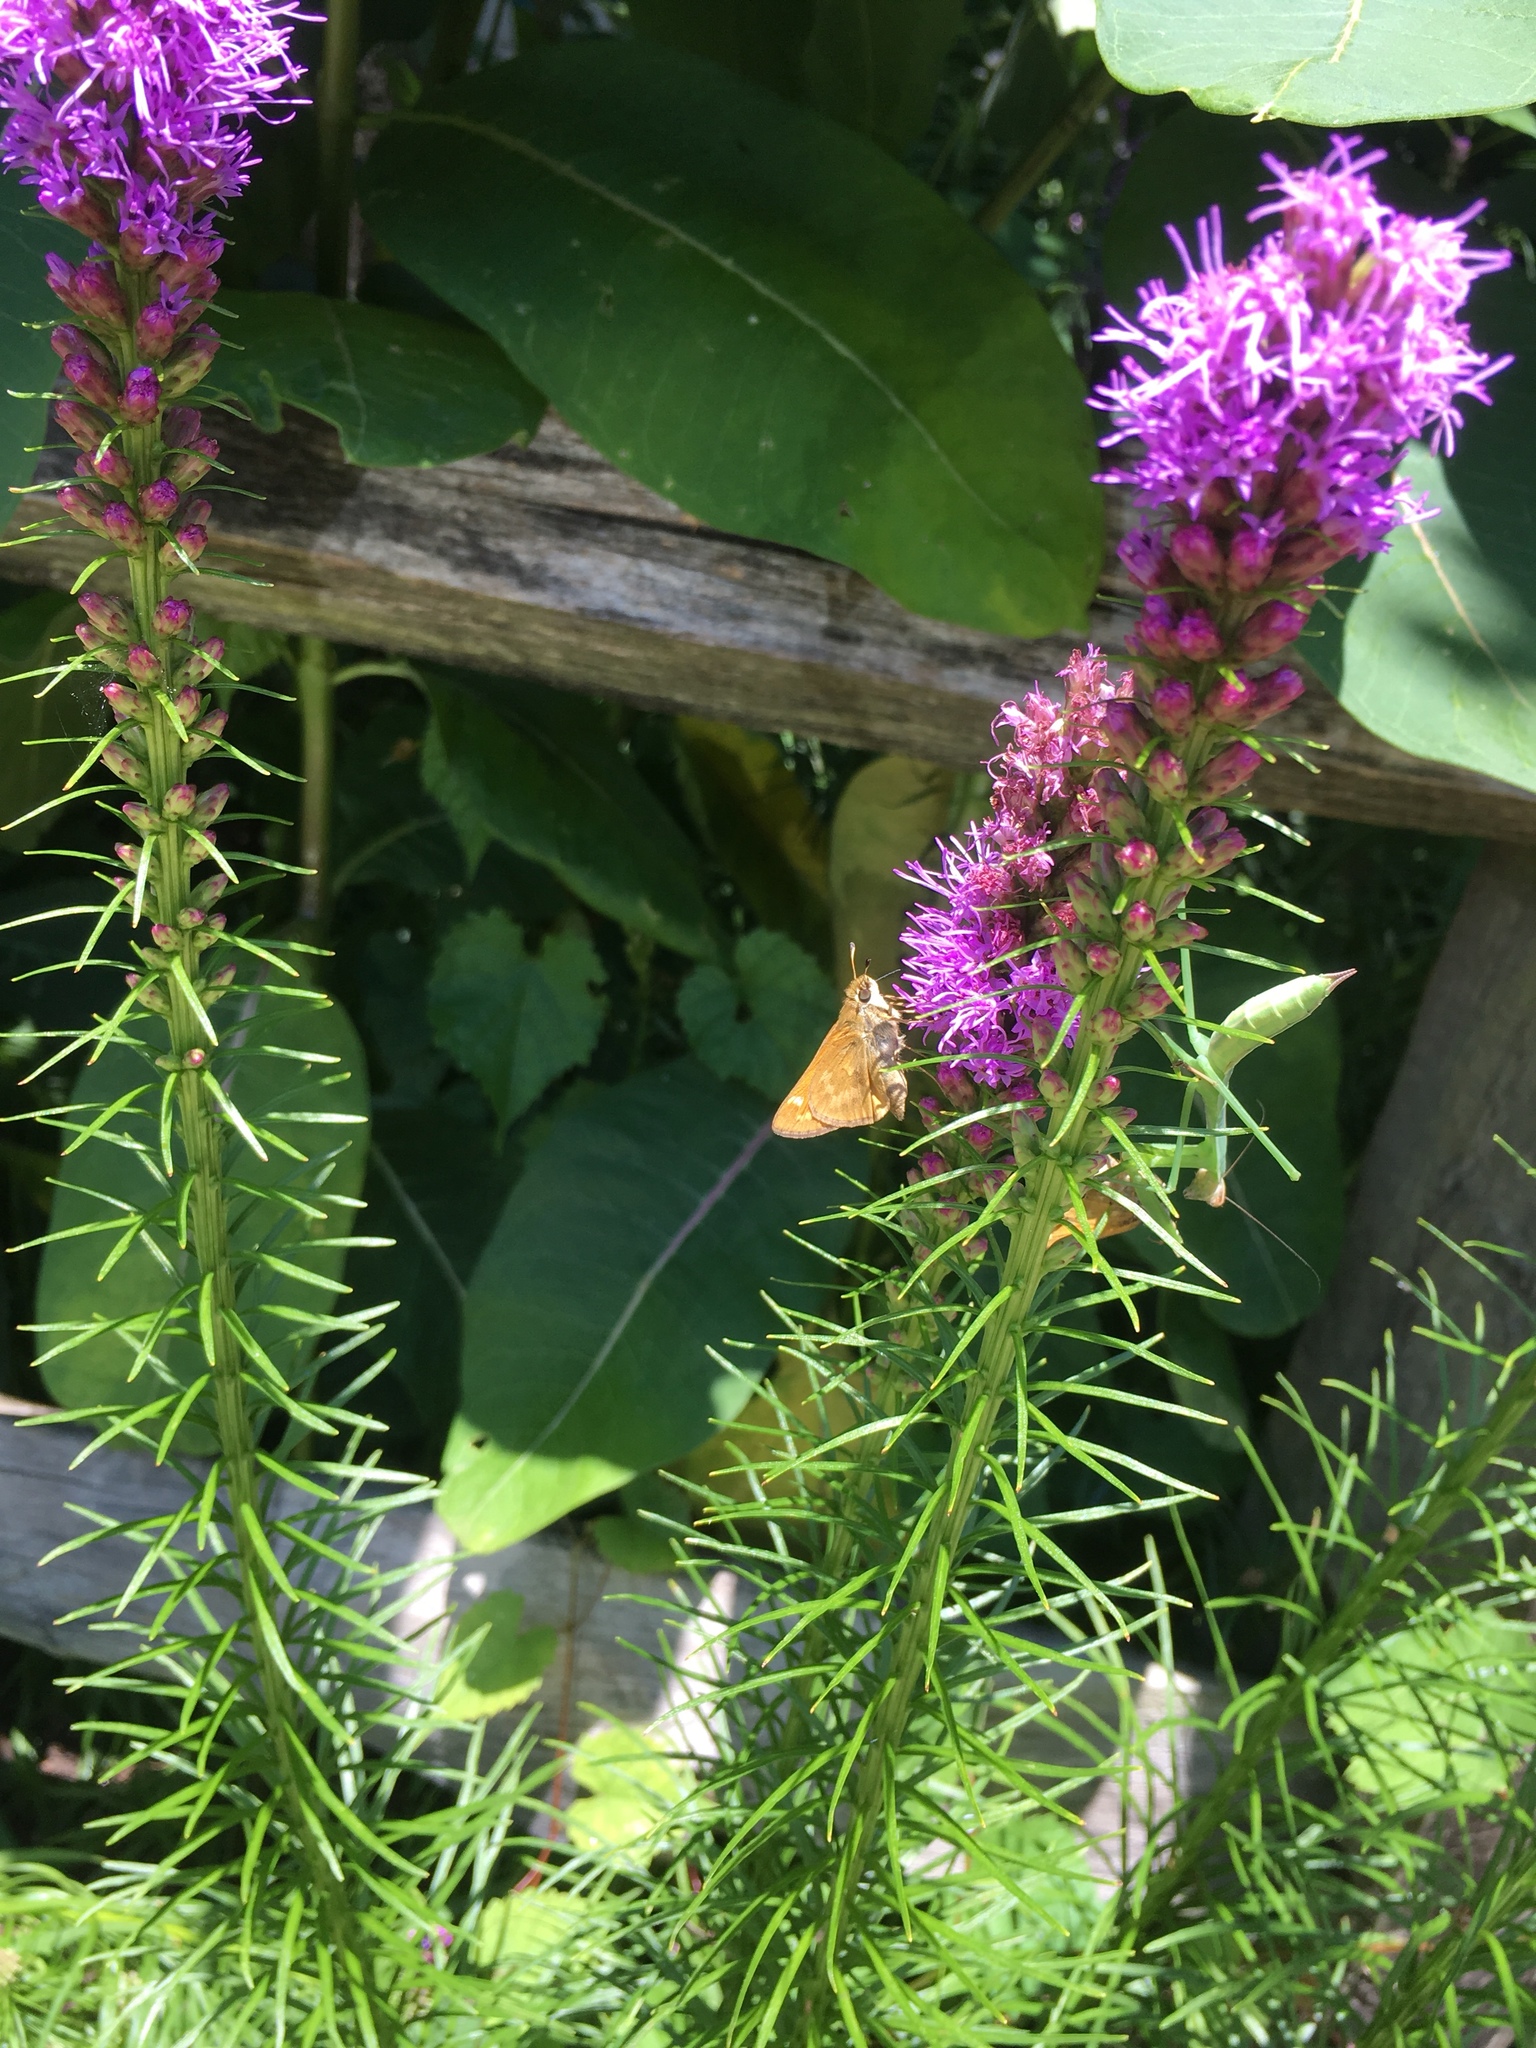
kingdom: Animalia
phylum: Arthropoda
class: Insecta
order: Lepidoptera
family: Hesperiidae
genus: Atalopedes
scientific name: Atalopedes
